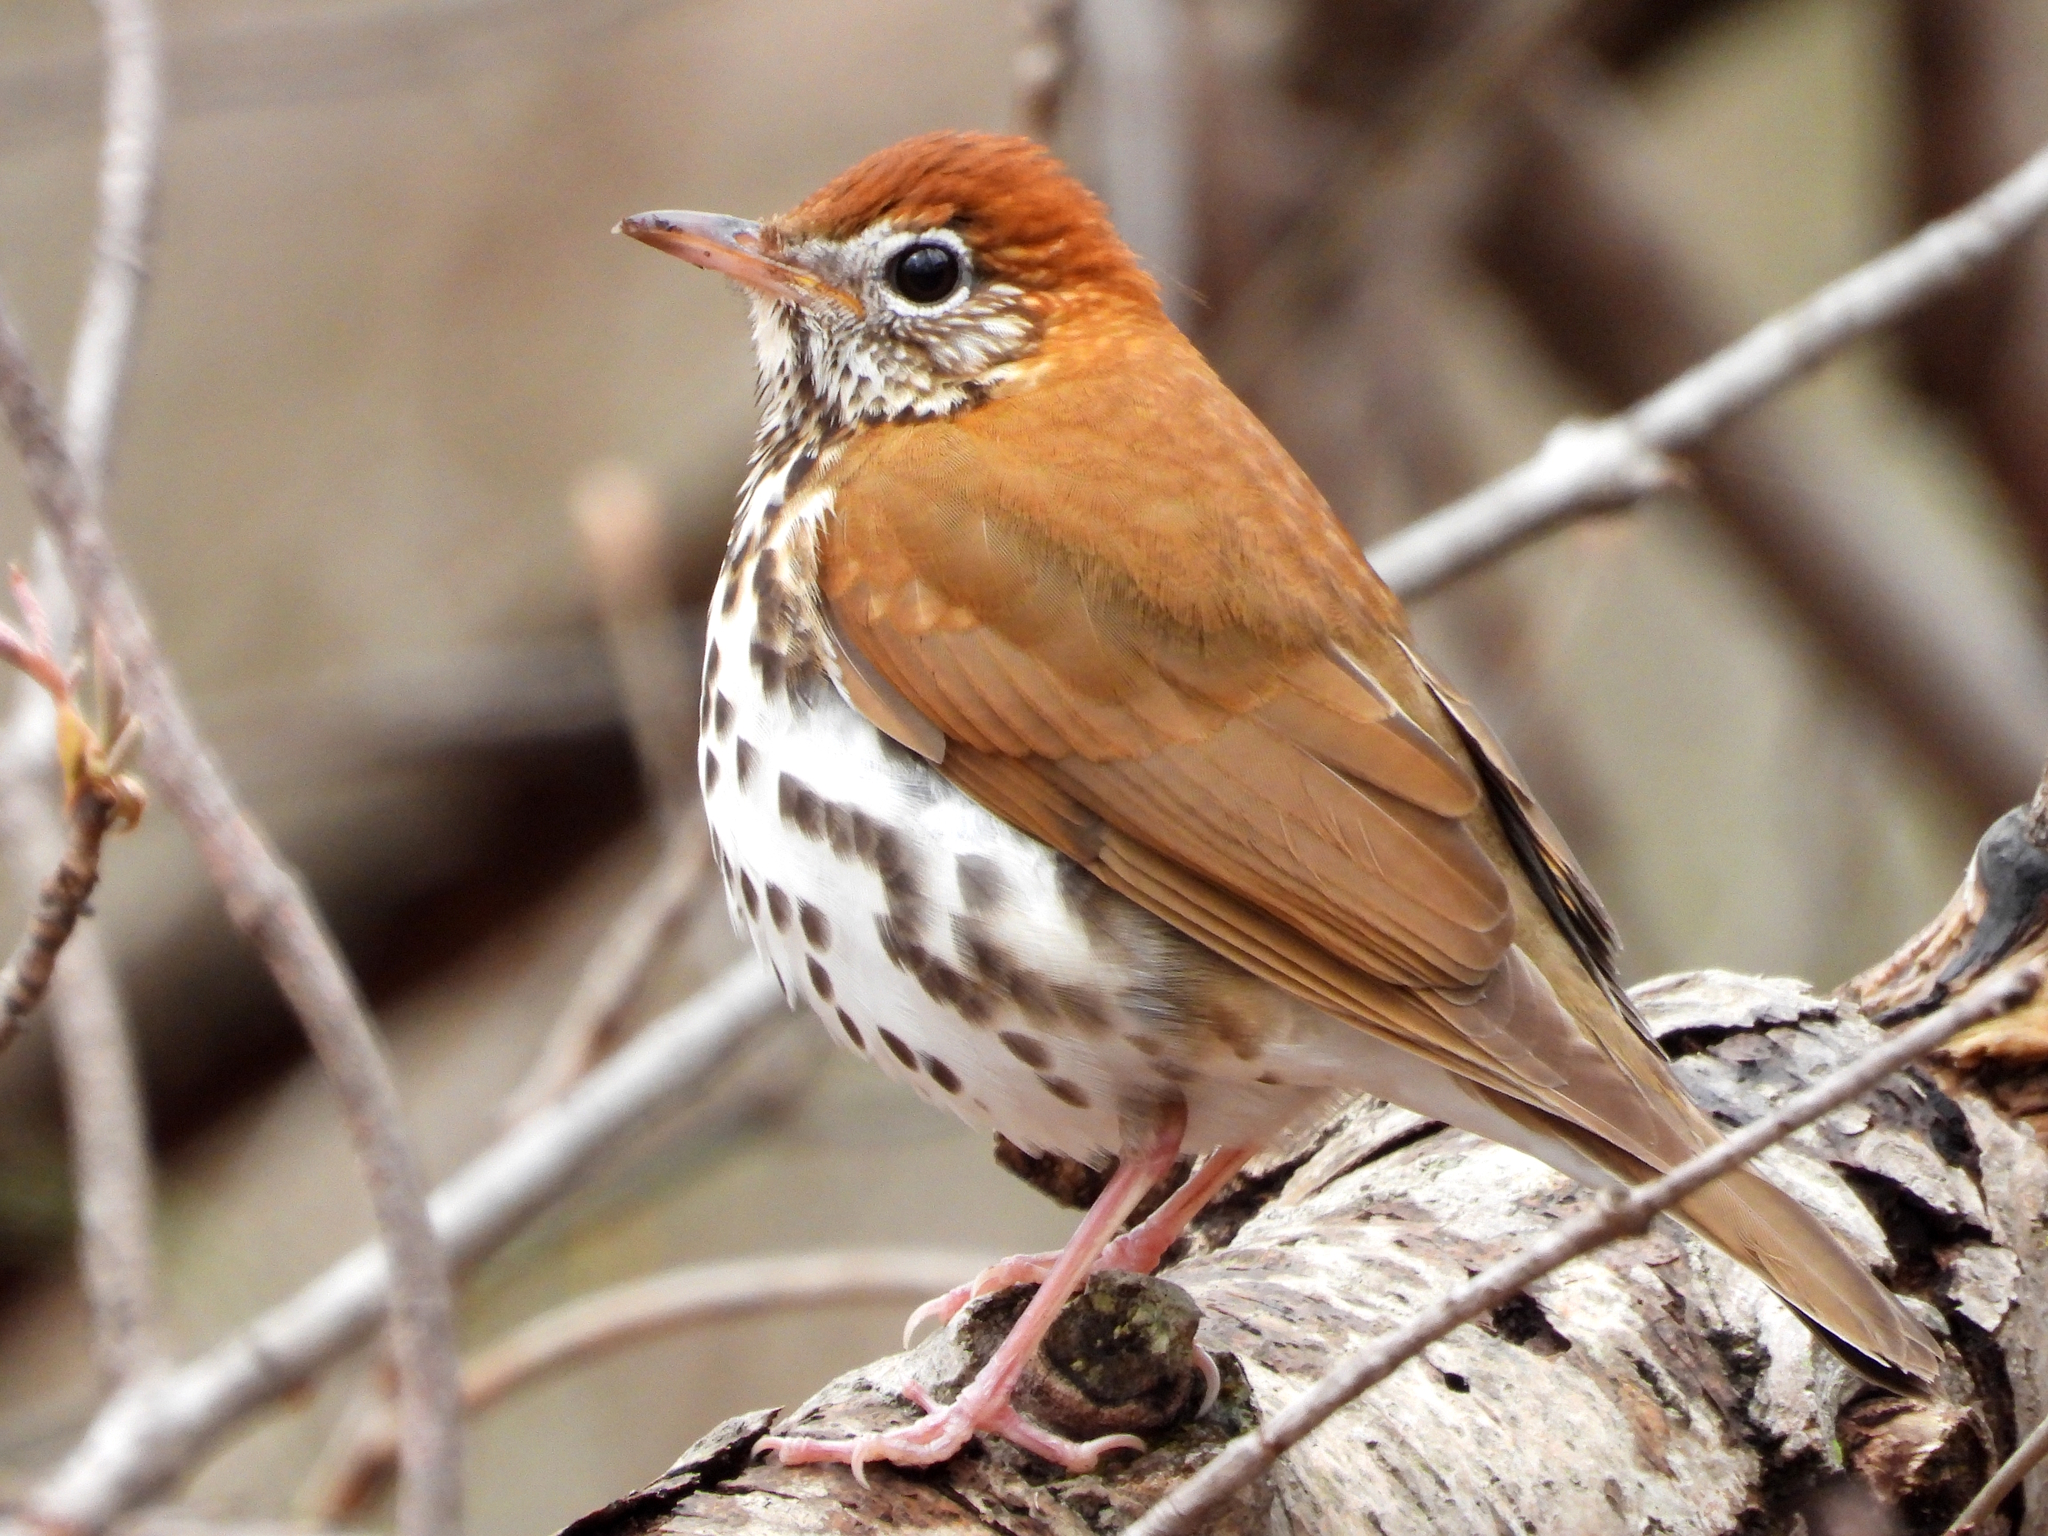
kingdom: Animalia
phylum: Chordata
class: Aves
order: Passeriformes
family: Turdidae
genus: Hylocichla
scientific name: Hylocichla mustelina
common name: Wood thrush
